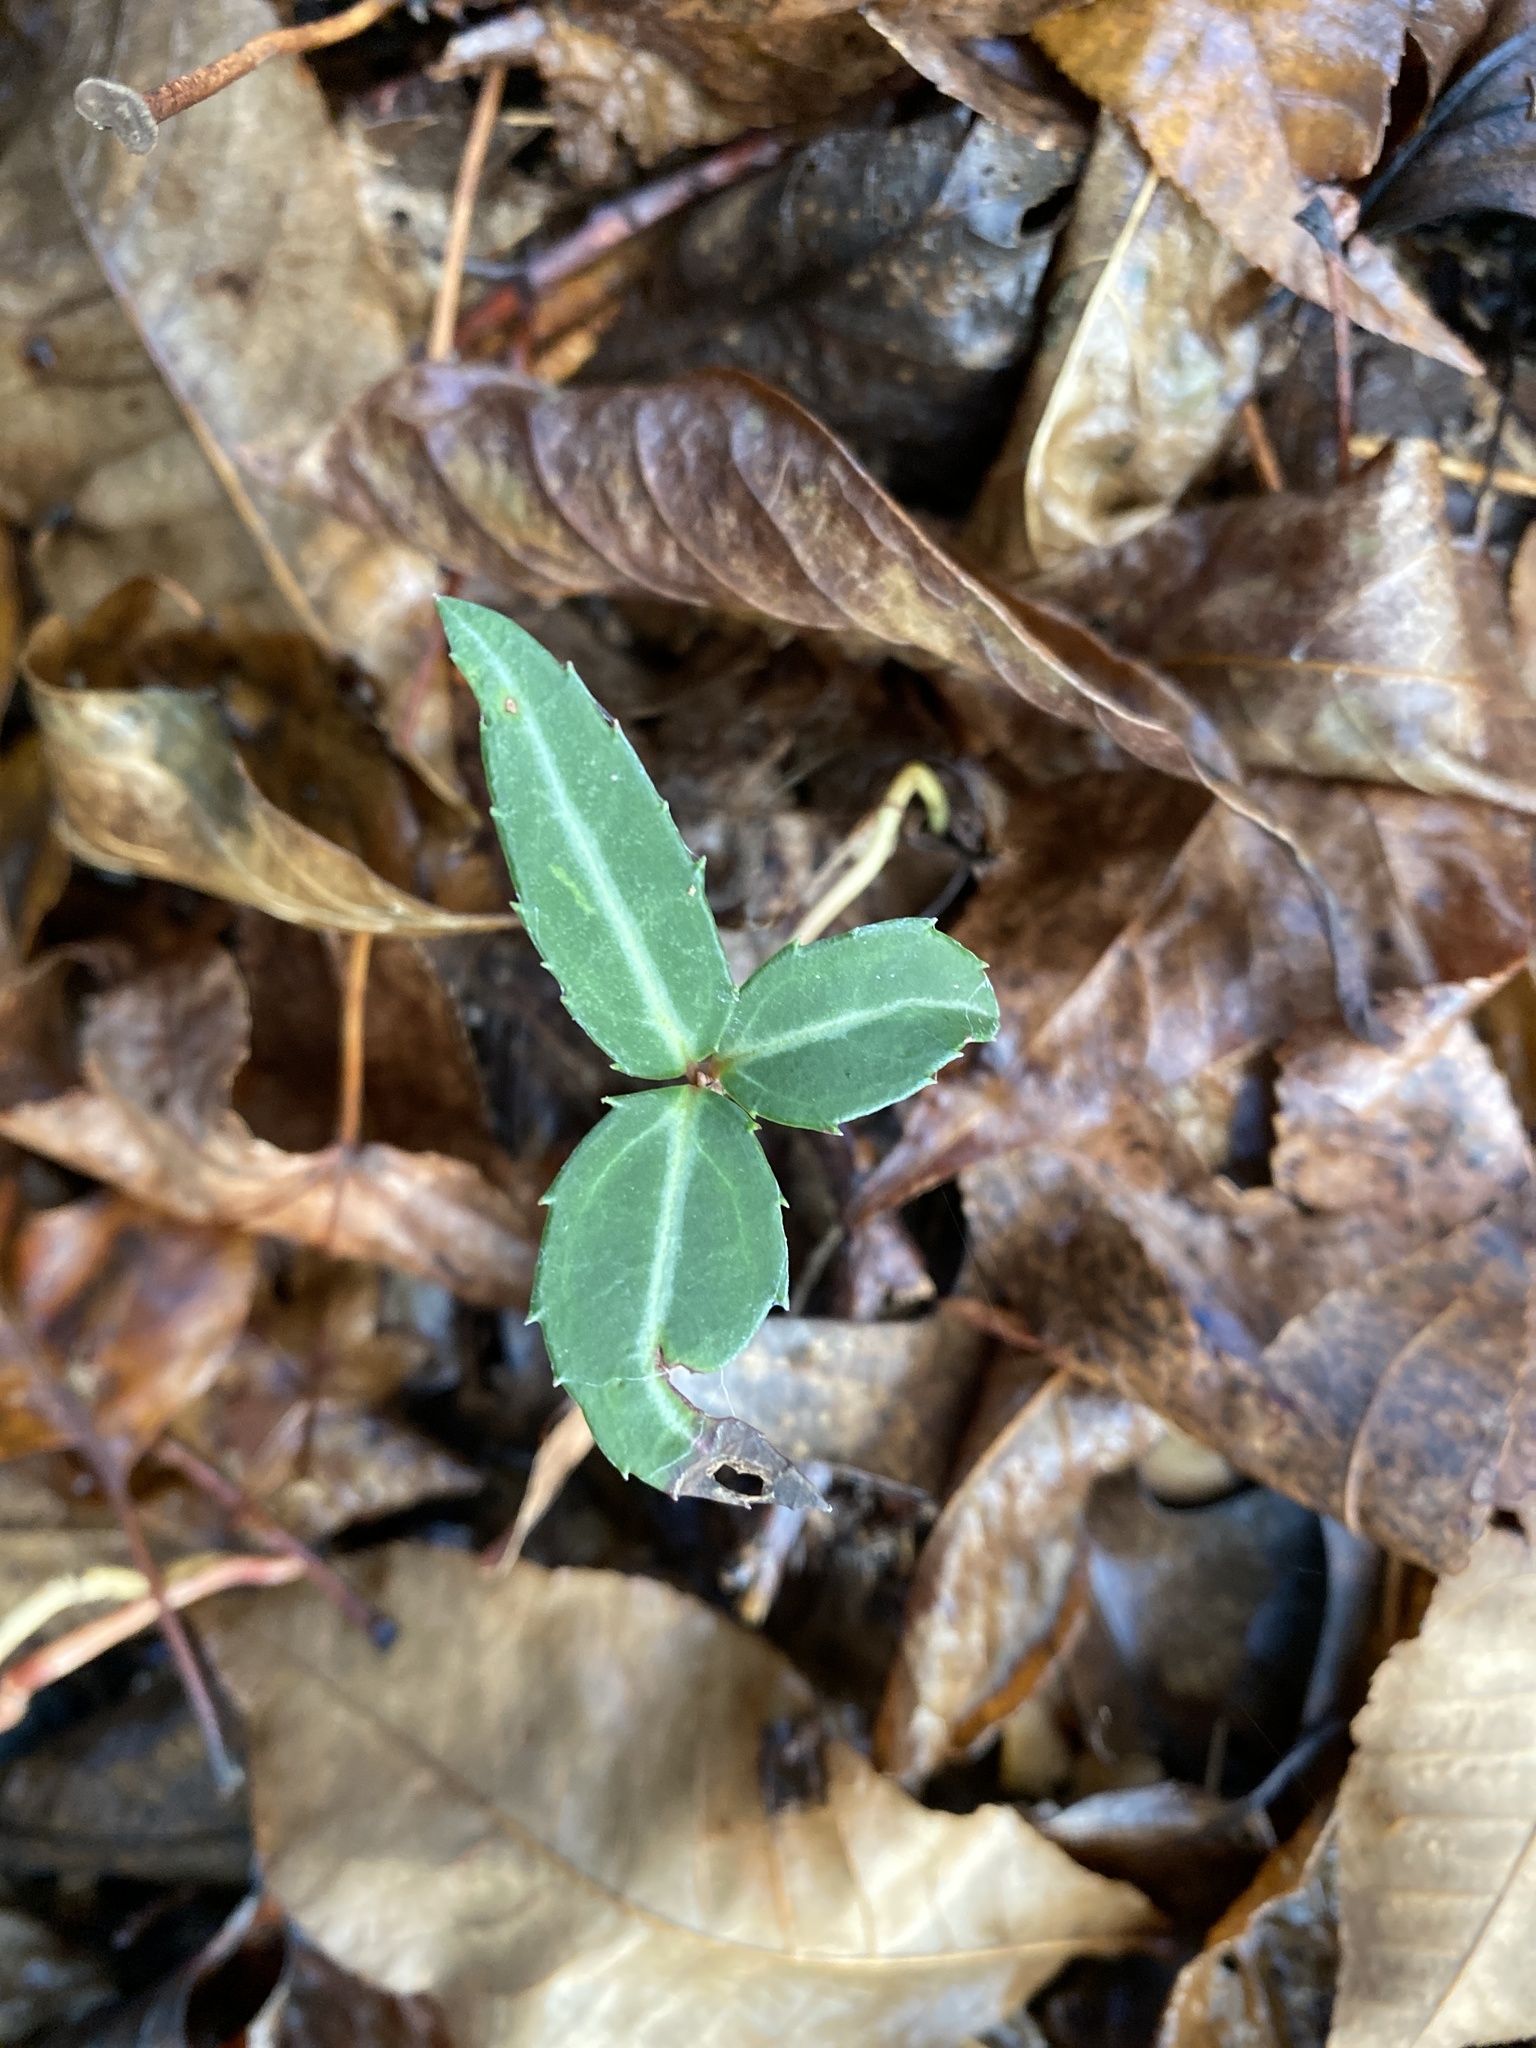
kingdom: Plantae
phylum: Tracheophyta
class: Magnoliopsida
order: Ericales
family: Ericaceae
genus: Chimaphila
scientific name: Chimaphila maculata
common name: Spotted pipsissewa
